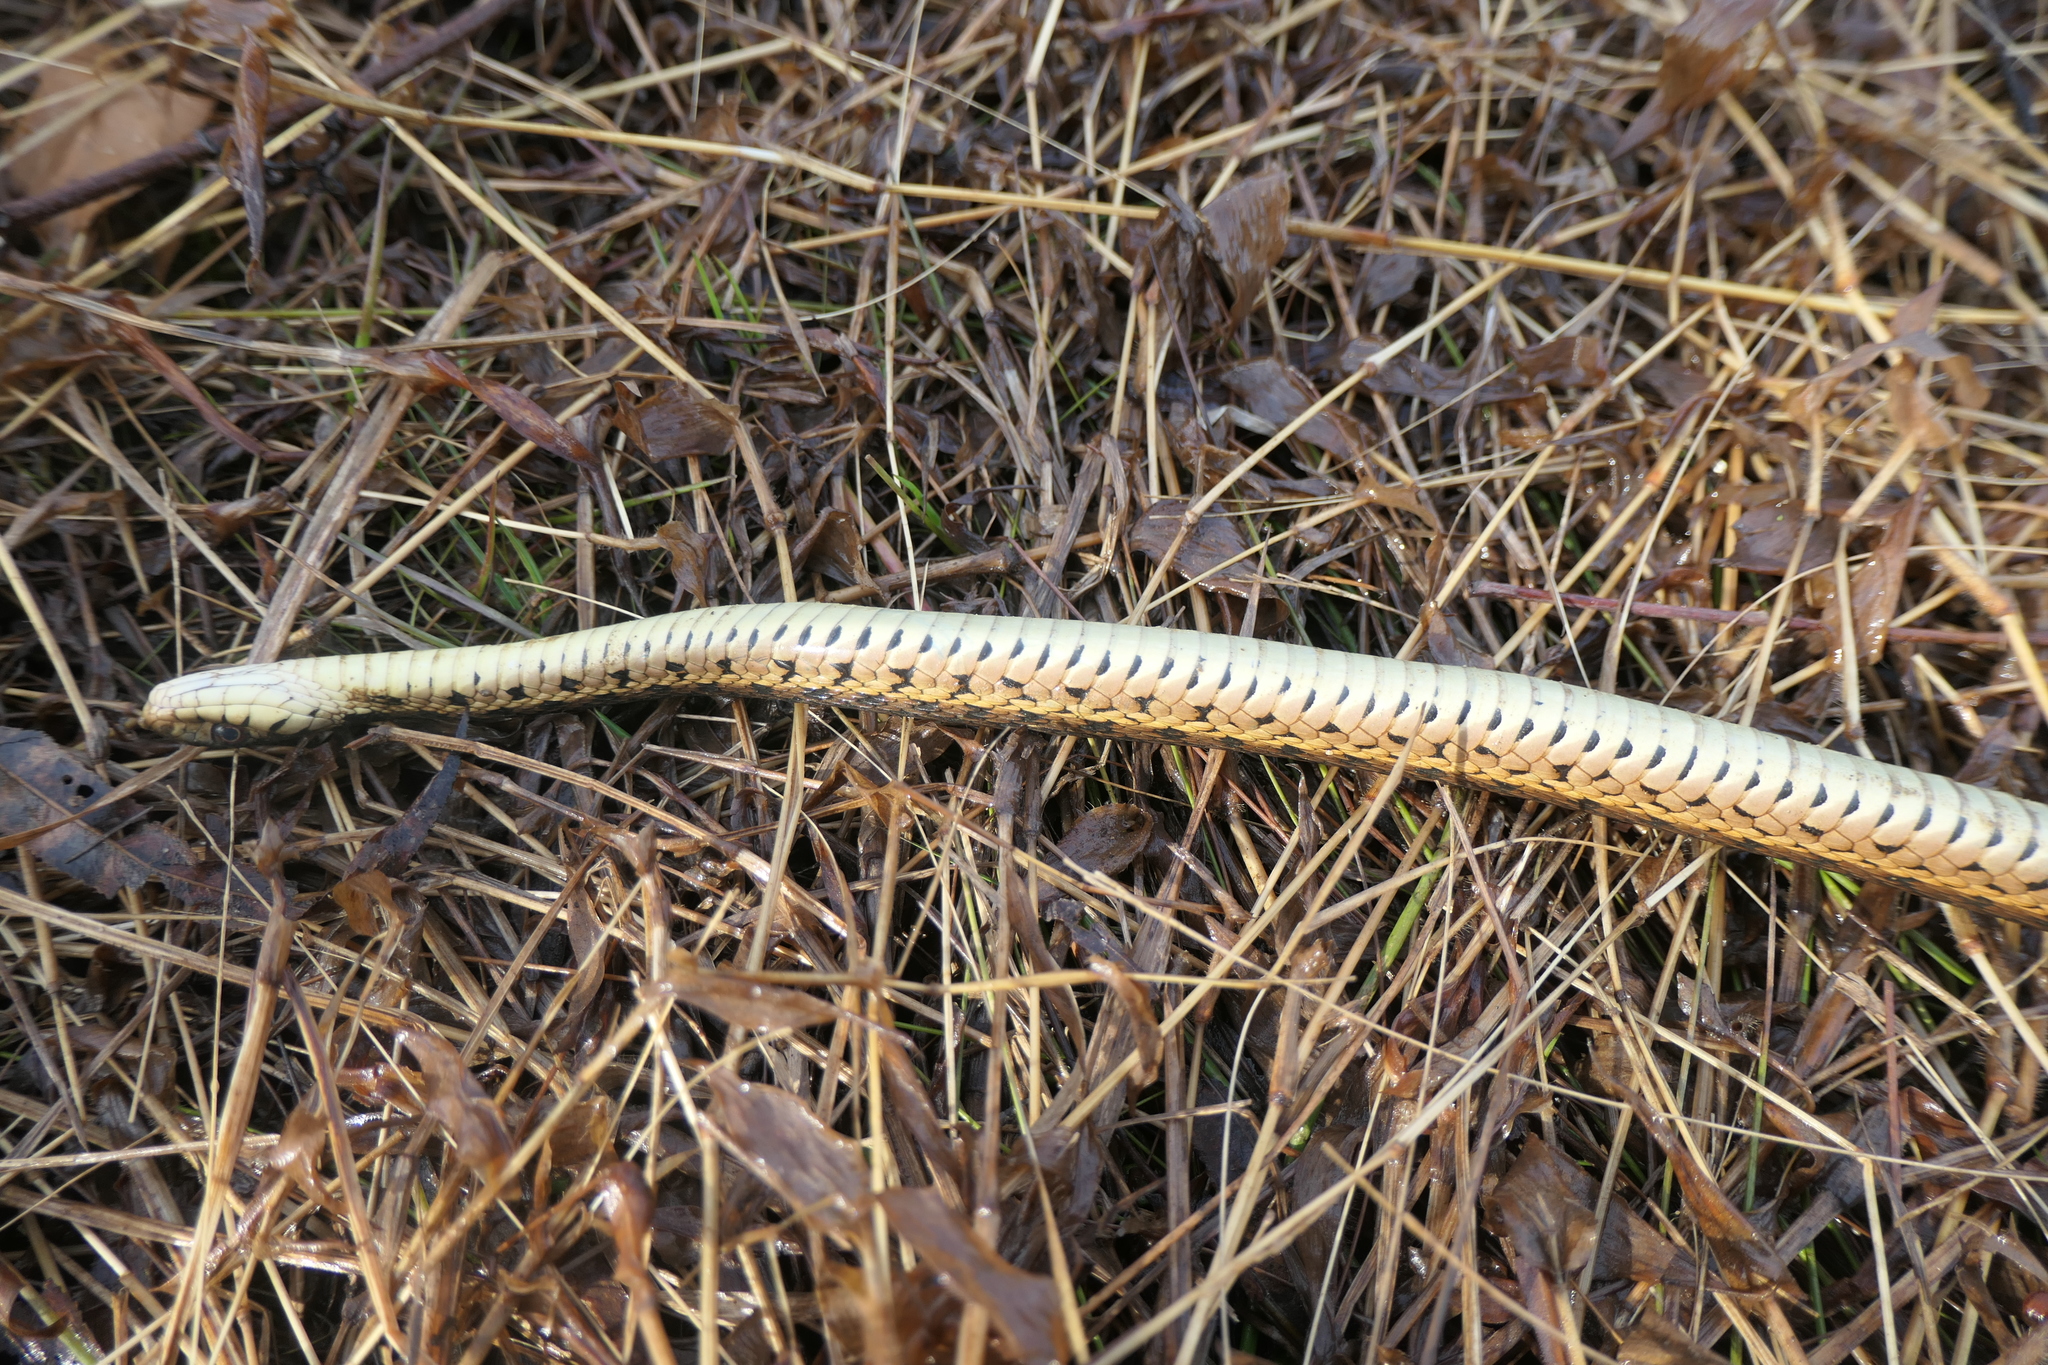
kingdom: Animalia
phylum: Chordata
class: Squamata
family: Colubridae
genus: Thamnophis
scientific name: Thamnophis sirtalis
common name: Common garter snake
